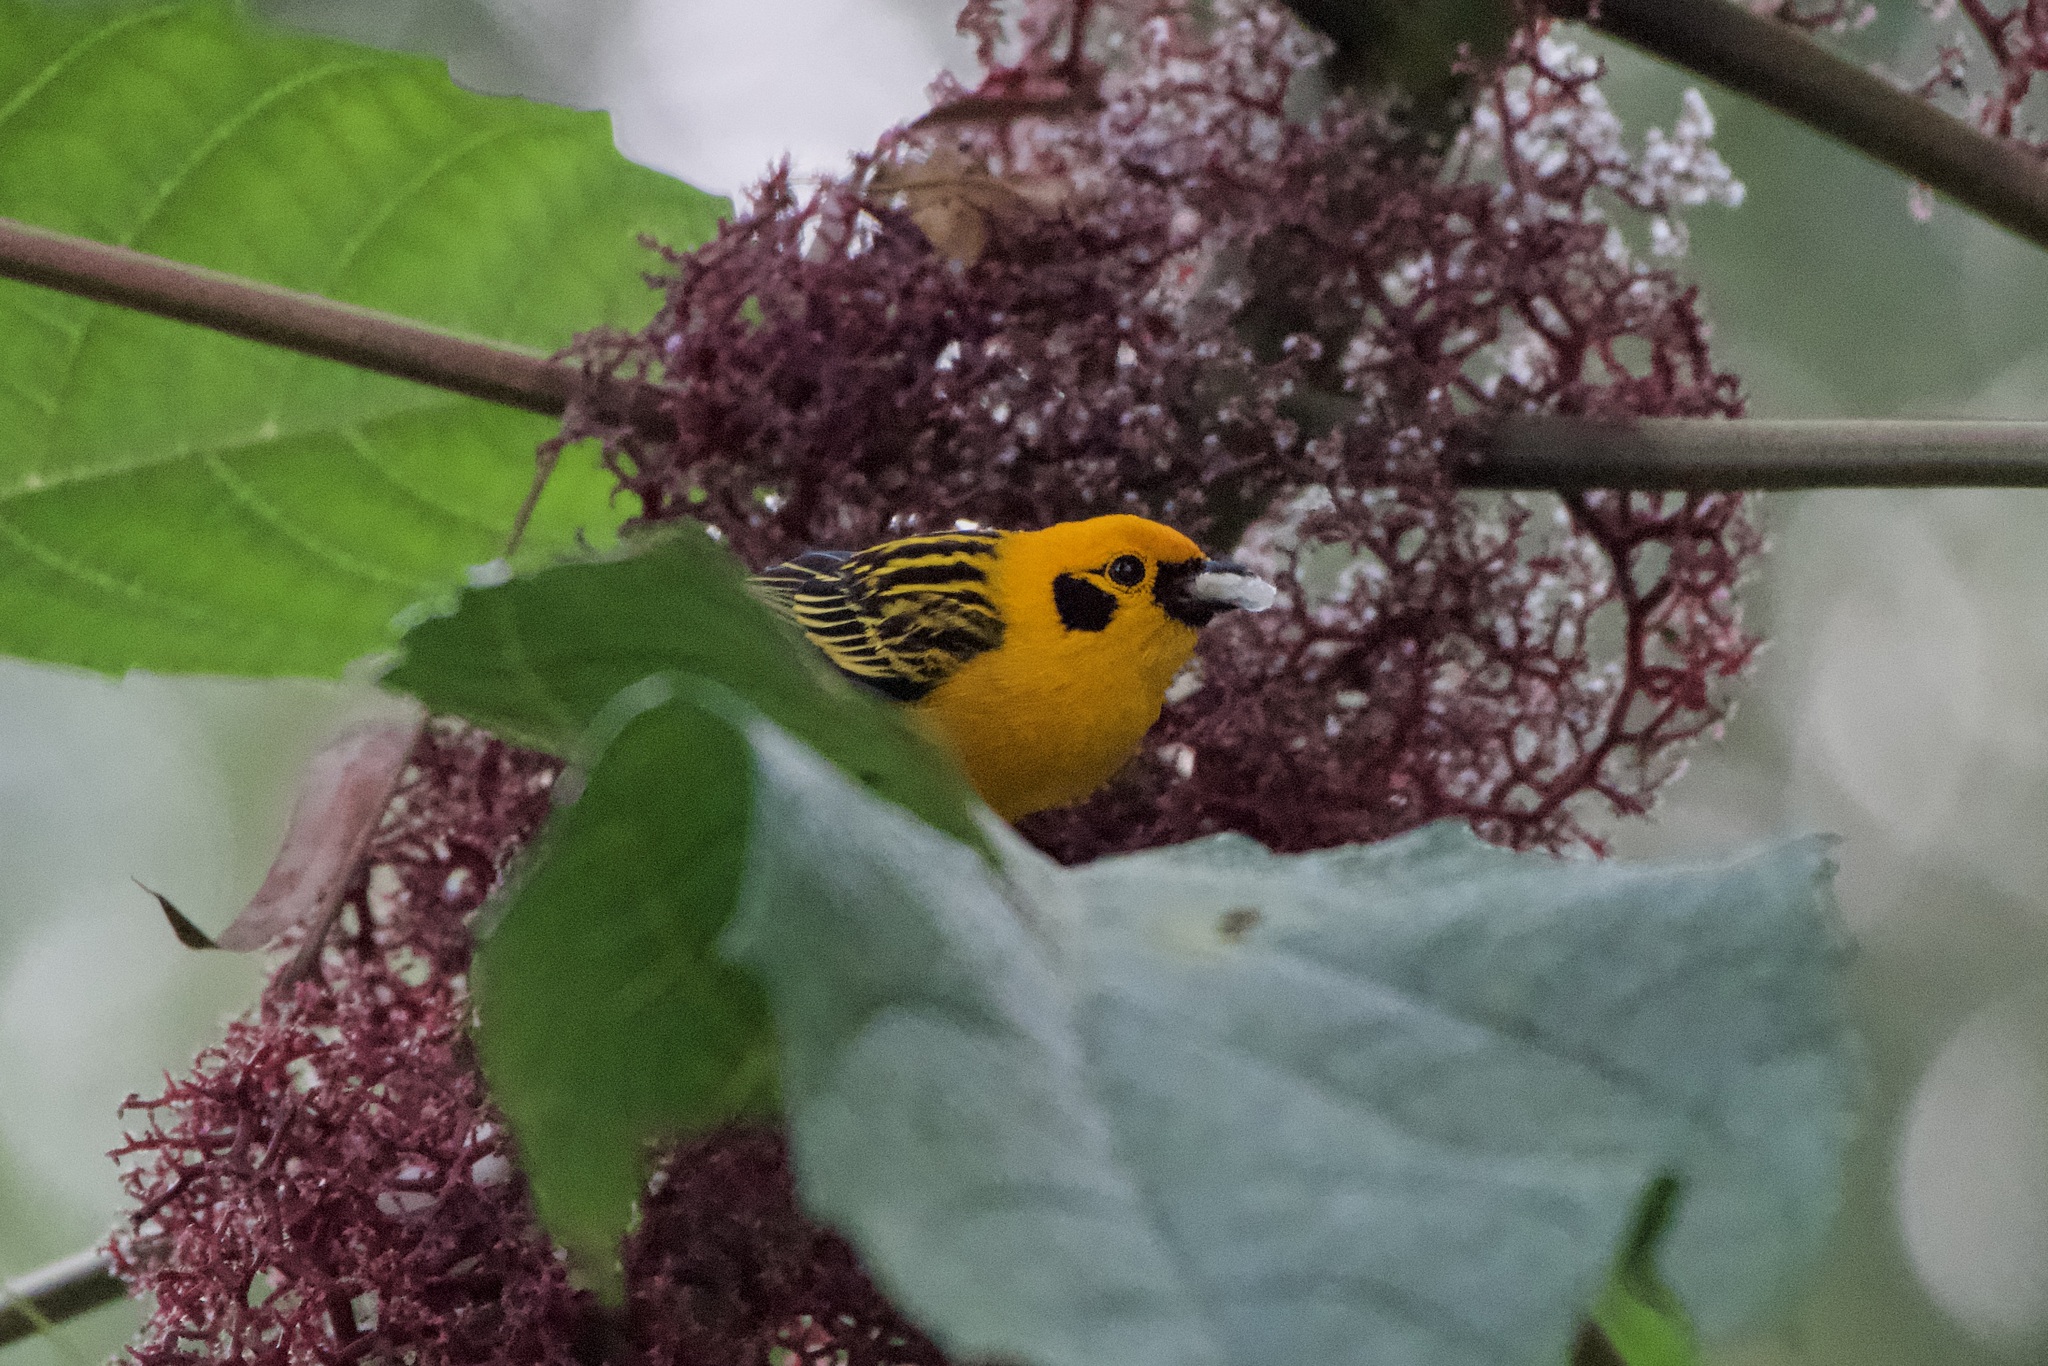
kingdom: Animalia
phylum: Chordata
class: Aves
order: Passeriformes
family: Thraupidae
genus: Tangara
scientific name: Tangara arthus
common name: Golden tanager
